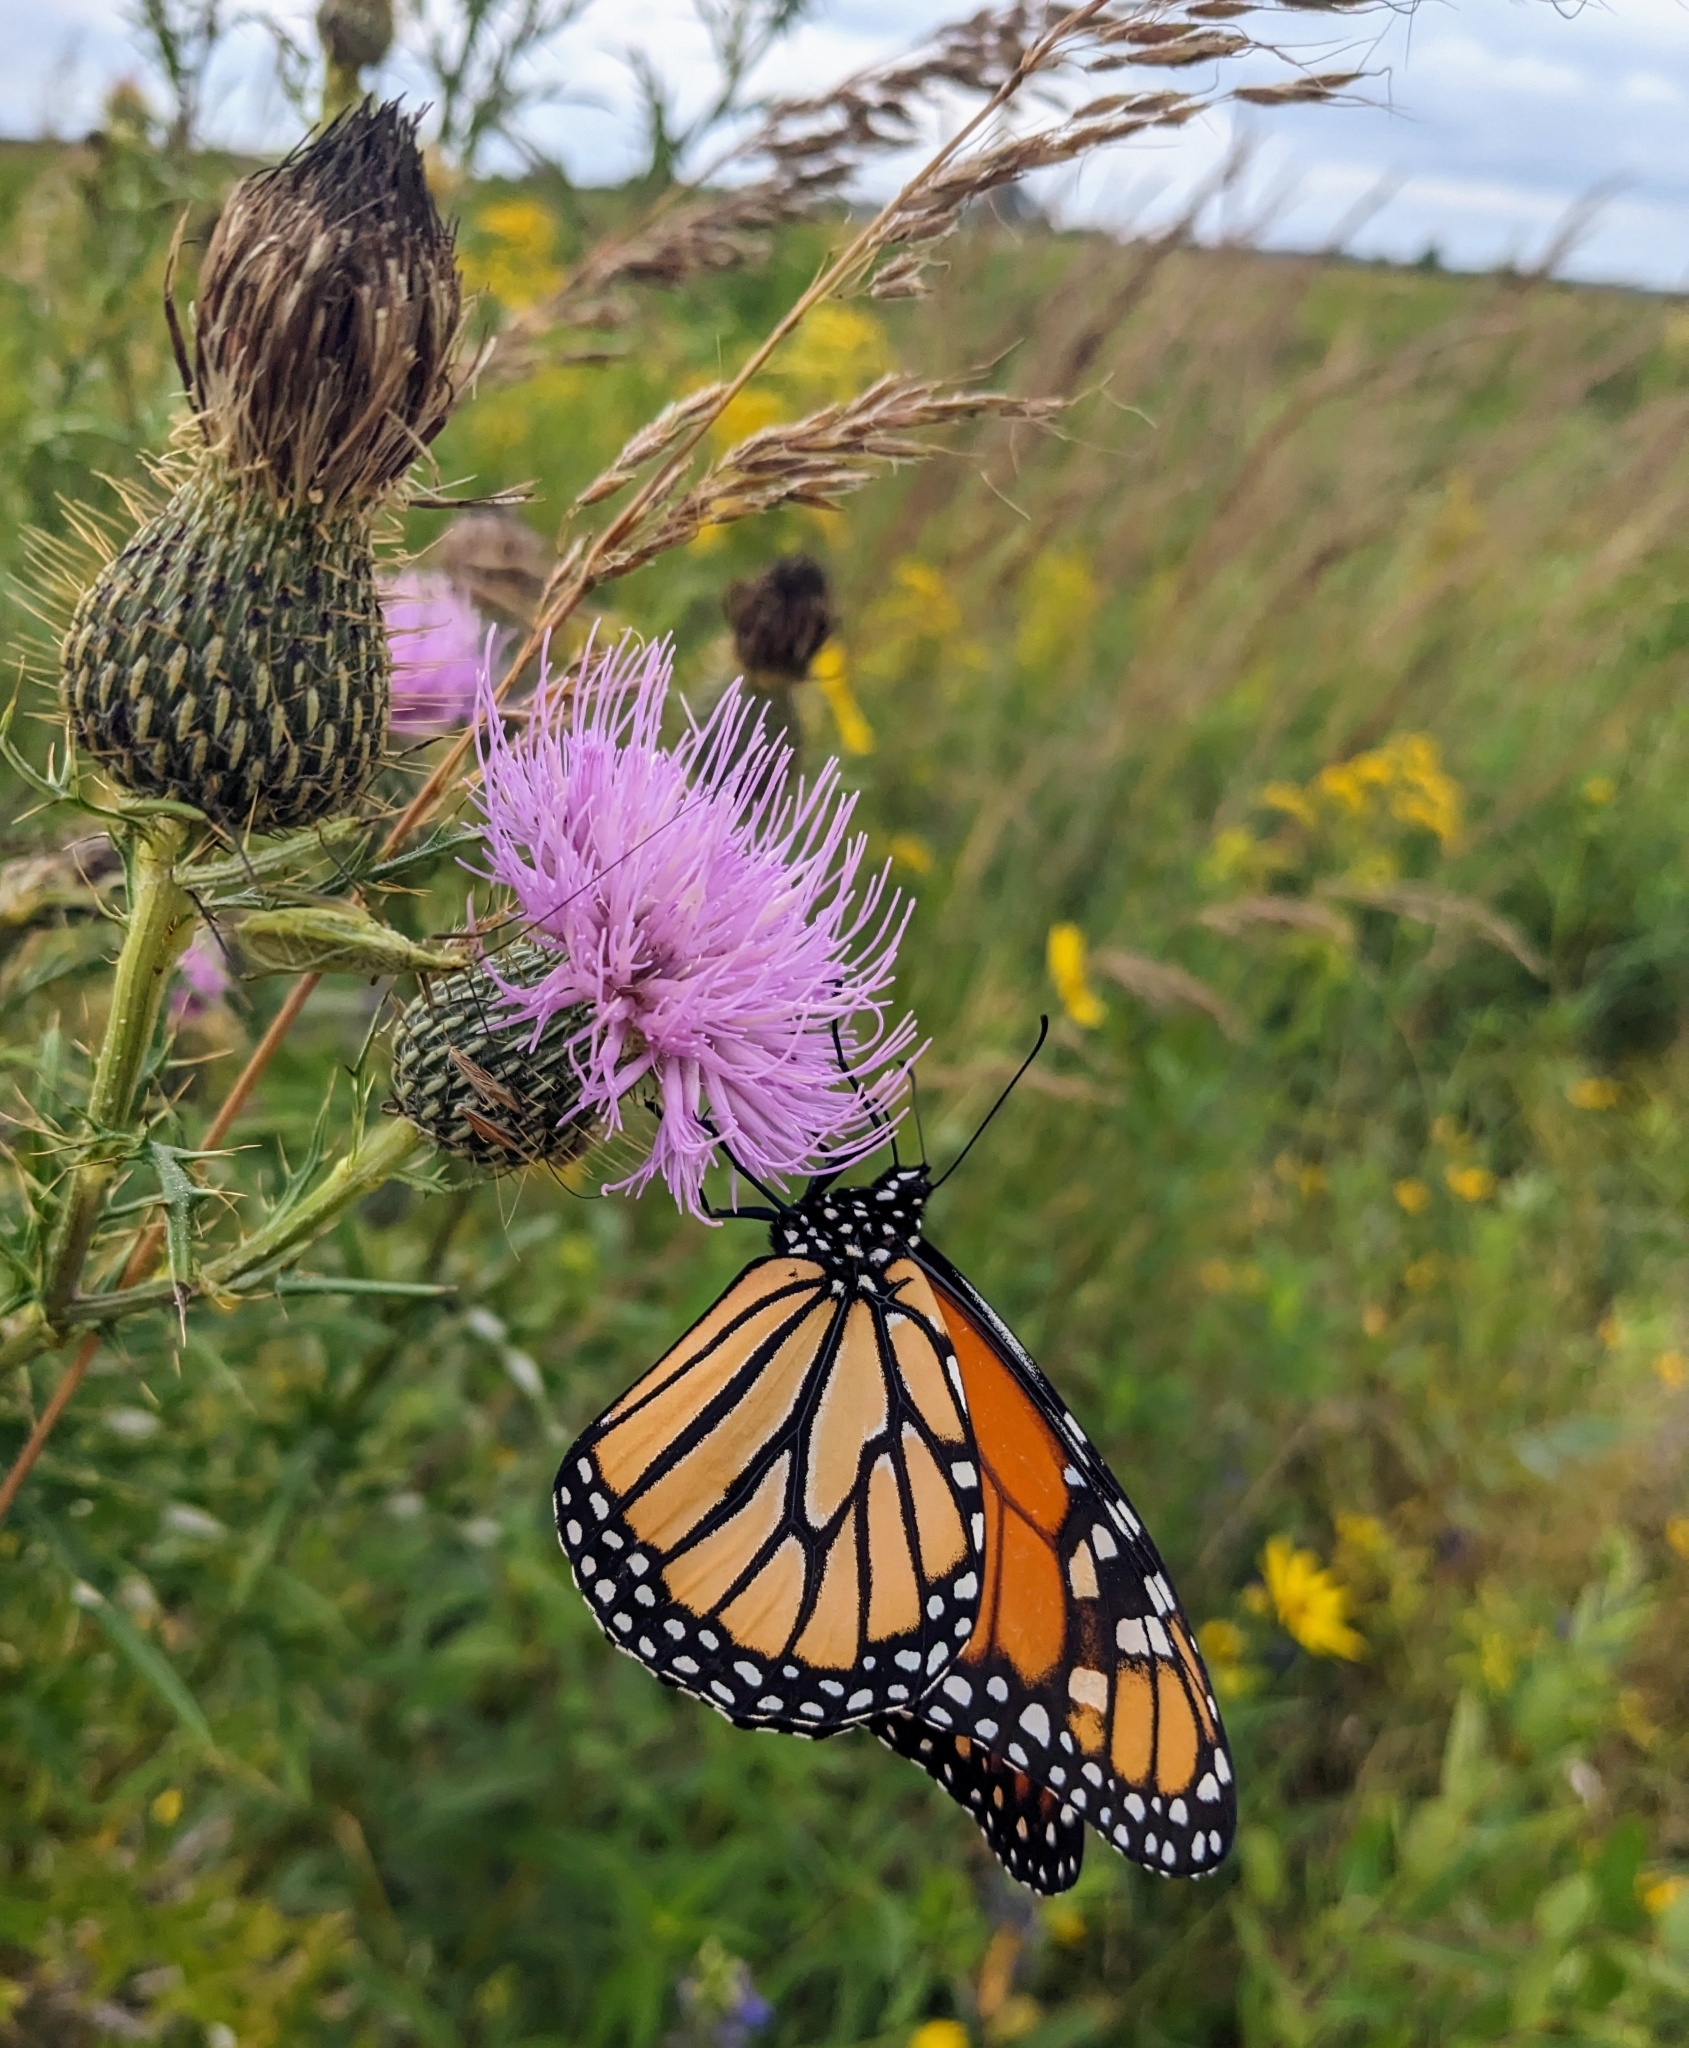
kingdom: Animalia
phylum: Arthropoda
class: Insecta
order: Lepidoptera
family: Nymphalidae
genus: Danaus
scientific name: Danaus plexippus
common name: Monarch
